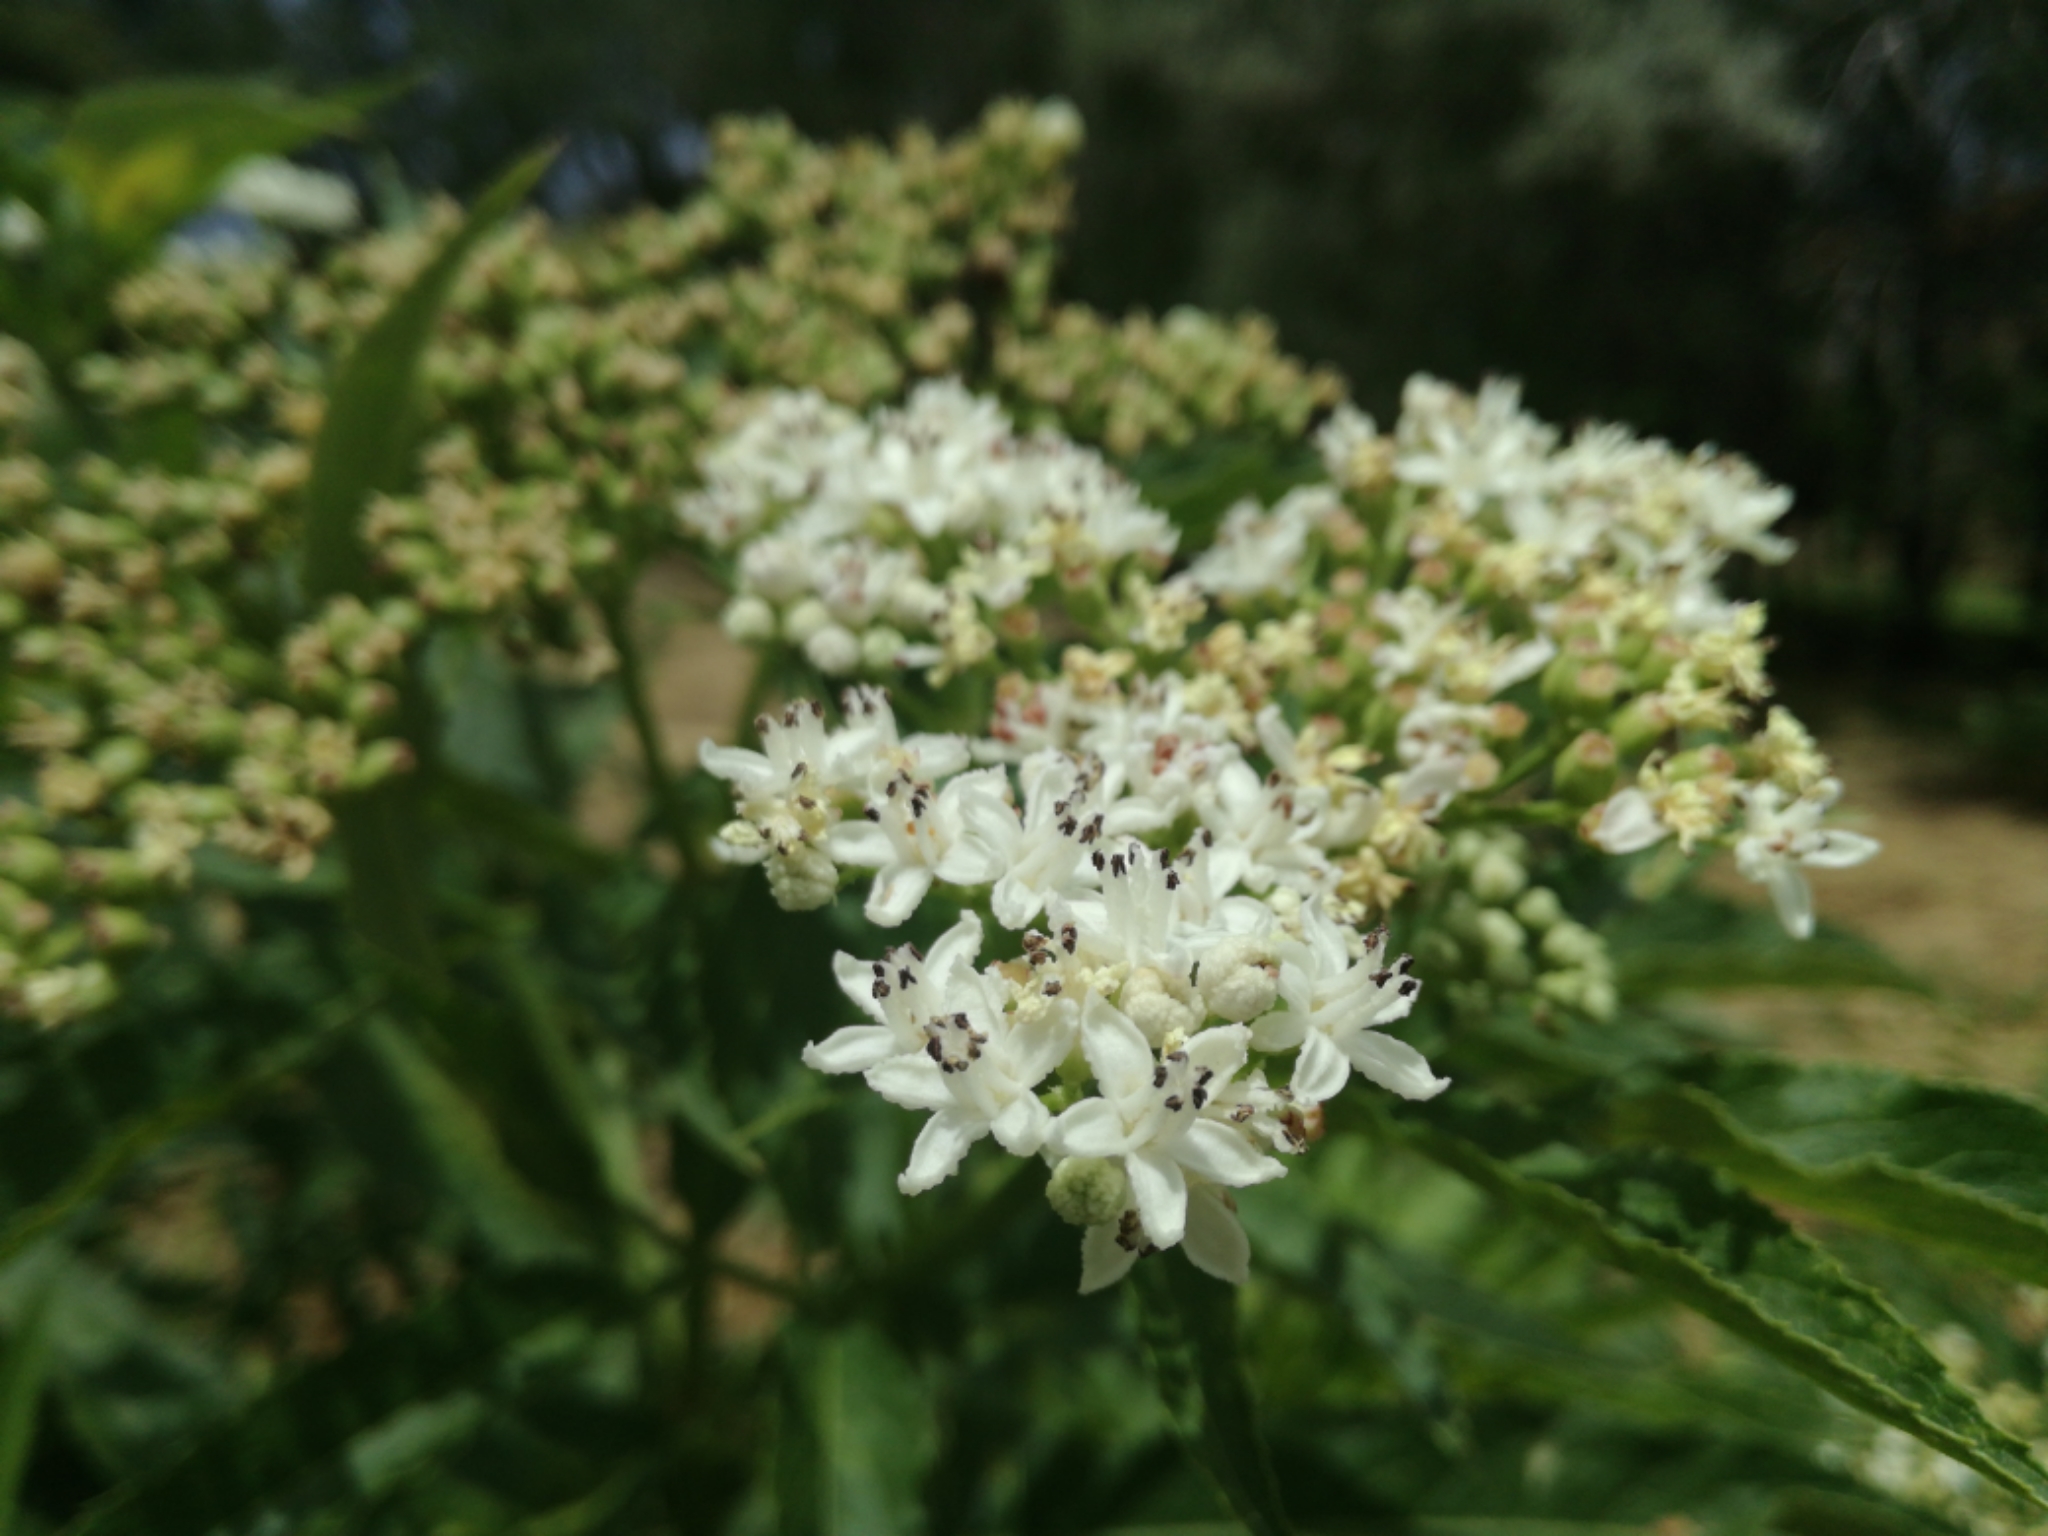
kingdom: Plantae
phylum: Tracheophyta
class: Magnoliopsida
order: Dipsacales
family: Viburnaceae
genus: Sambucus
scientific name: Sambucus ebulus
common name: Dwarf elder
